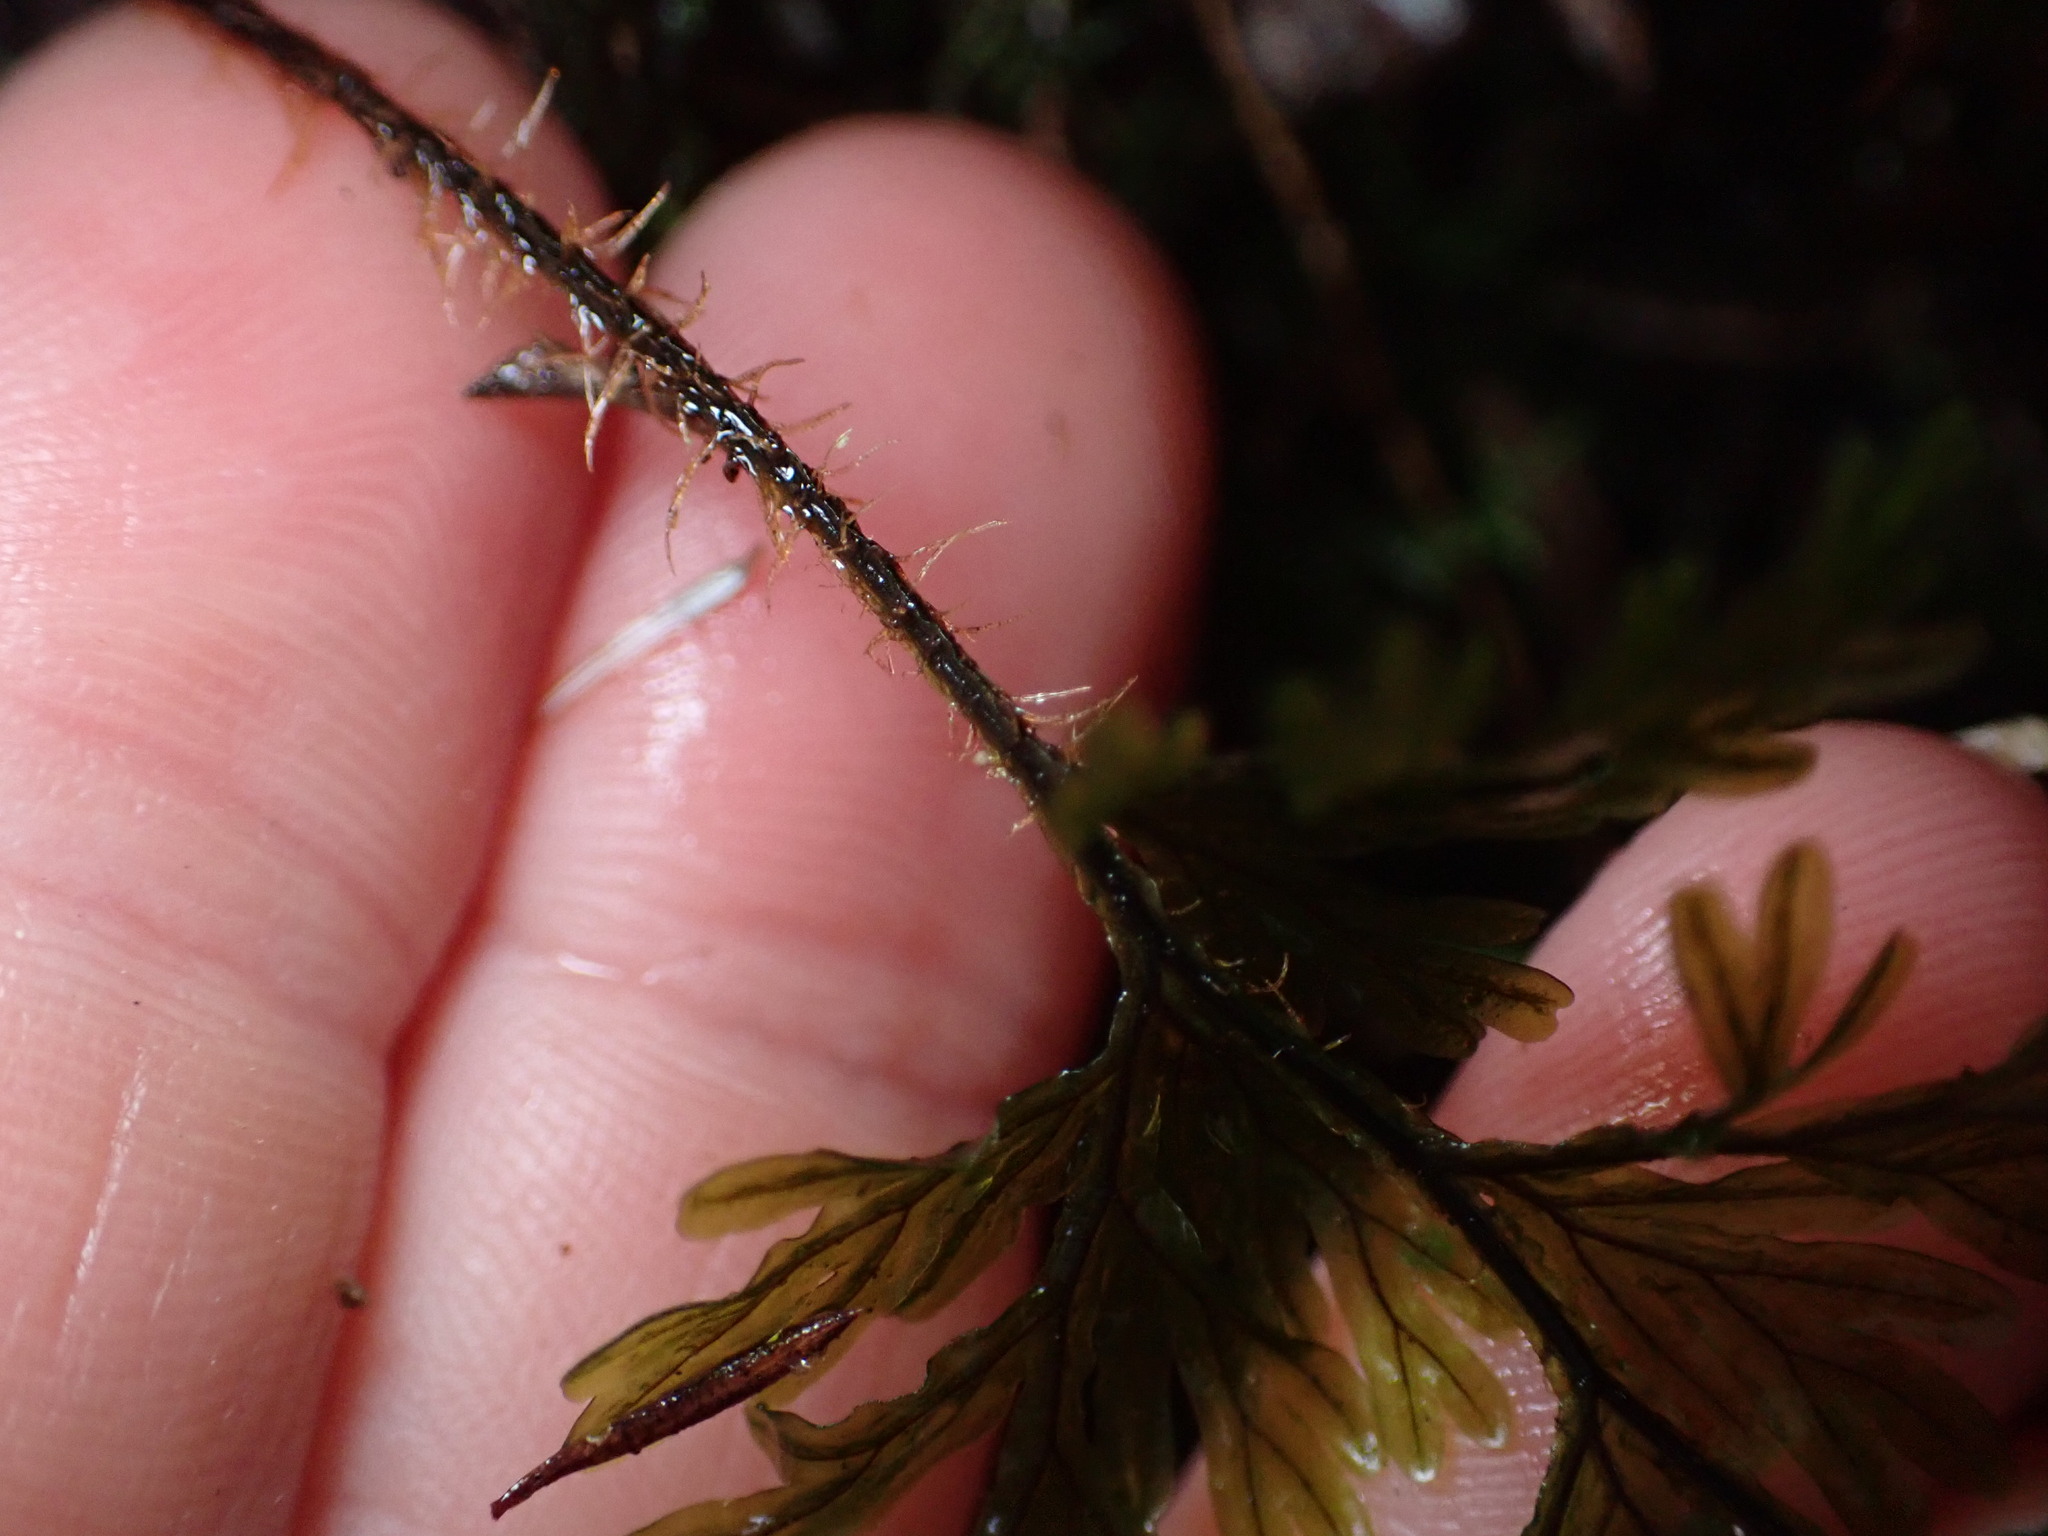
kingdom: Plantae
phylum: Tracheophyta
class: Polypodiopsida
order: Hymenophyllales
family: Hymenophyllaceae
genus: Hymenophyllum
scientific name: Hymenophyllum scabrum
